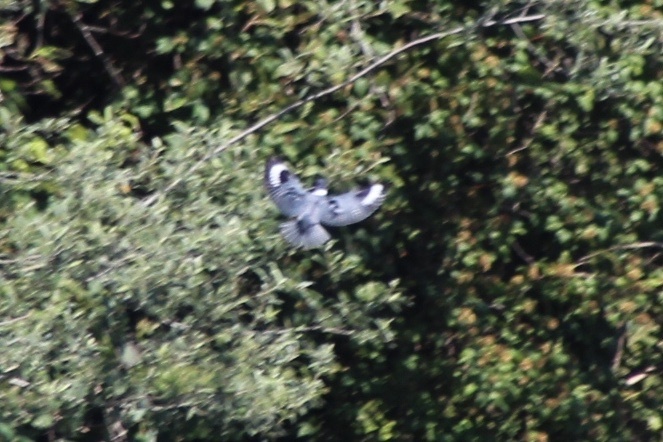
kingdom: Animalia
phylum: Chordata
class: Aves
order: Coraciiformes
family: Alcedinidae
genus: Megaceryle
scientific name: Megaceryle alcyon
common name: Belted kingfisher
